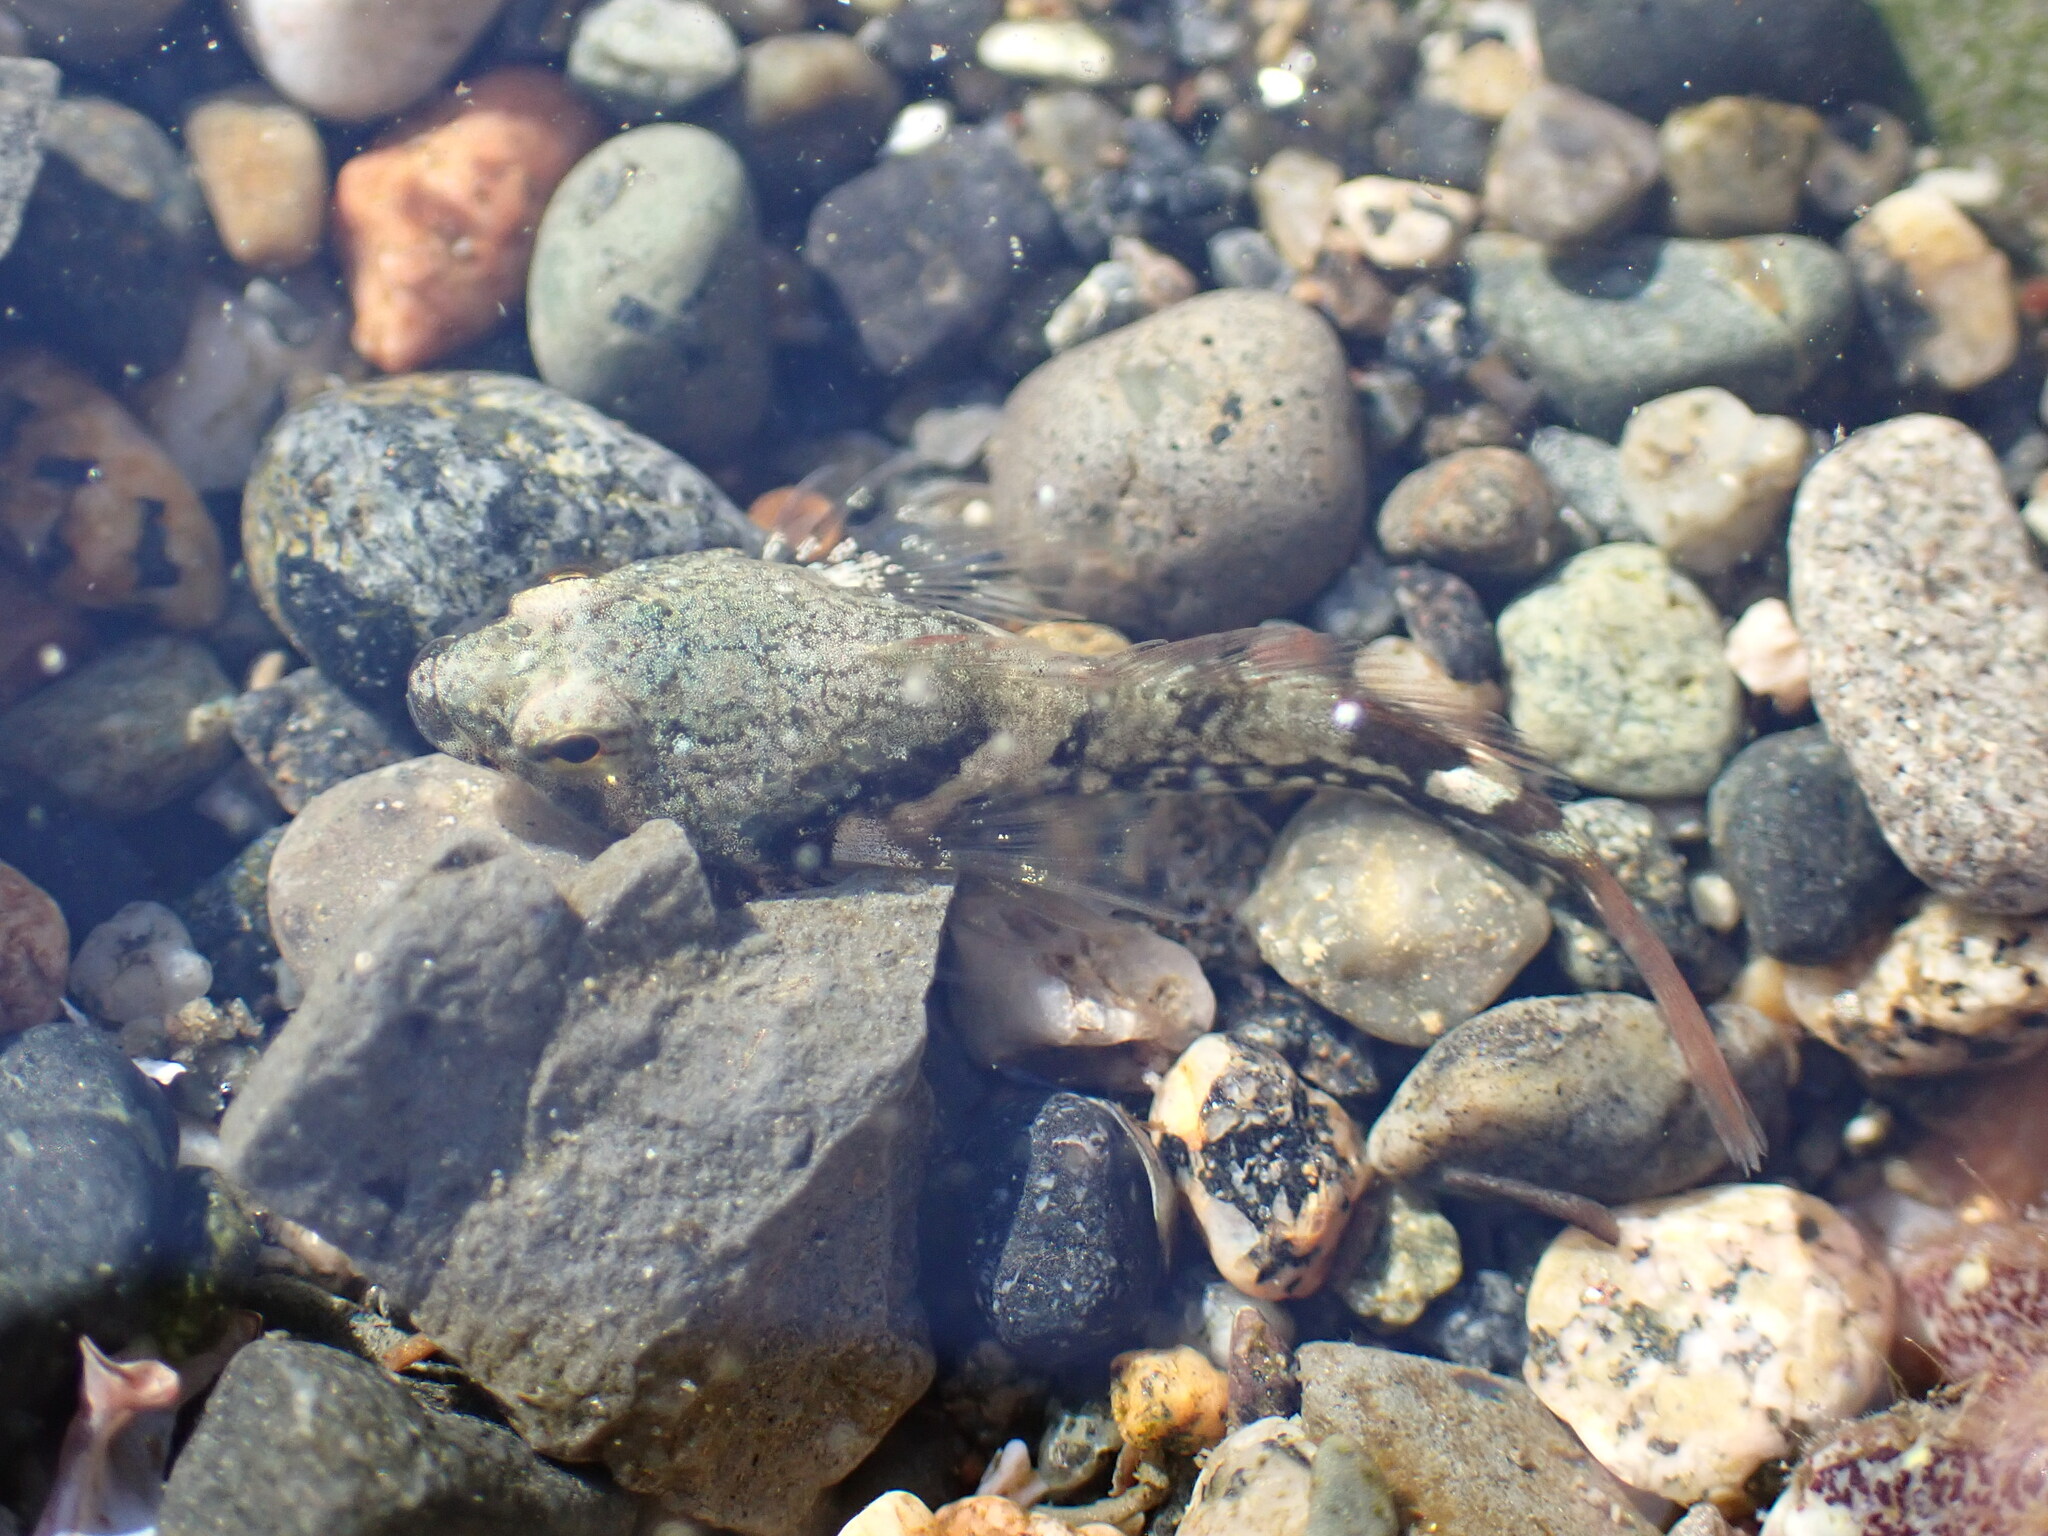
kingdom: Animalia
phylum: Chordata
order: Scorpaeniformes
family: Cottidae
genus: Oligocottus
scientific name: Oligocottus maculosus
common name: Tidepool sculpin
